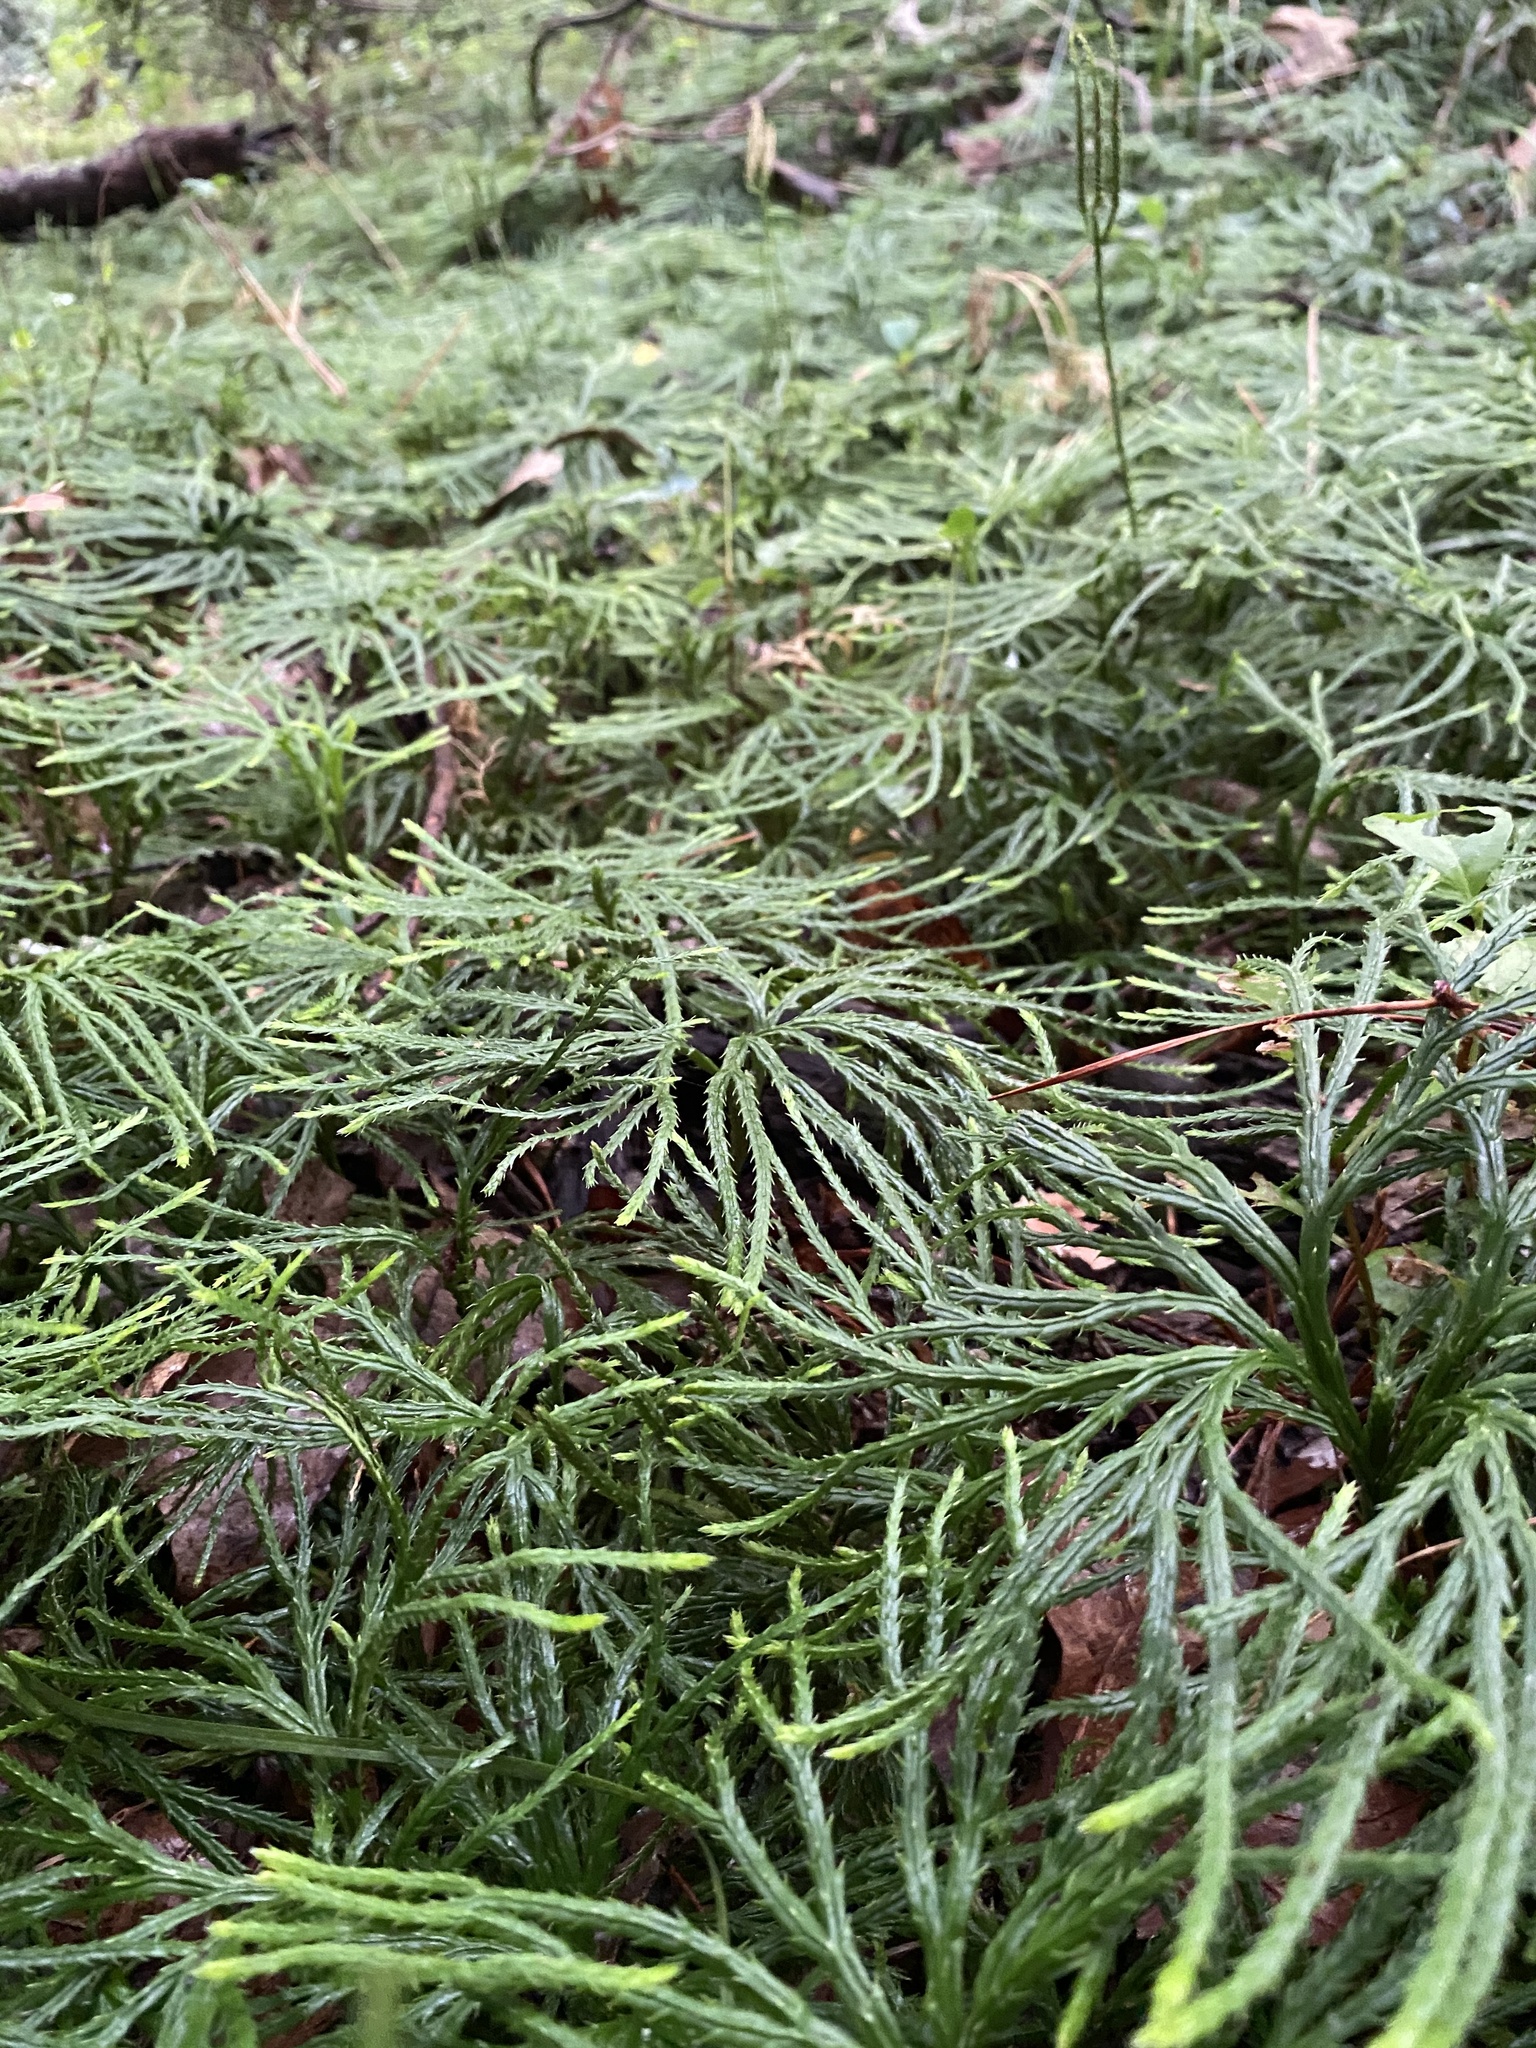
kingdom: Plantae
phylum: Tracheophyta
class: Lycopodiopsida
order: Lycopodiales
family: Lycopodiaceae
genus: Diphasiastrum
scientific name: Diphasiastrum digitatum
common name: Southern running-pine
